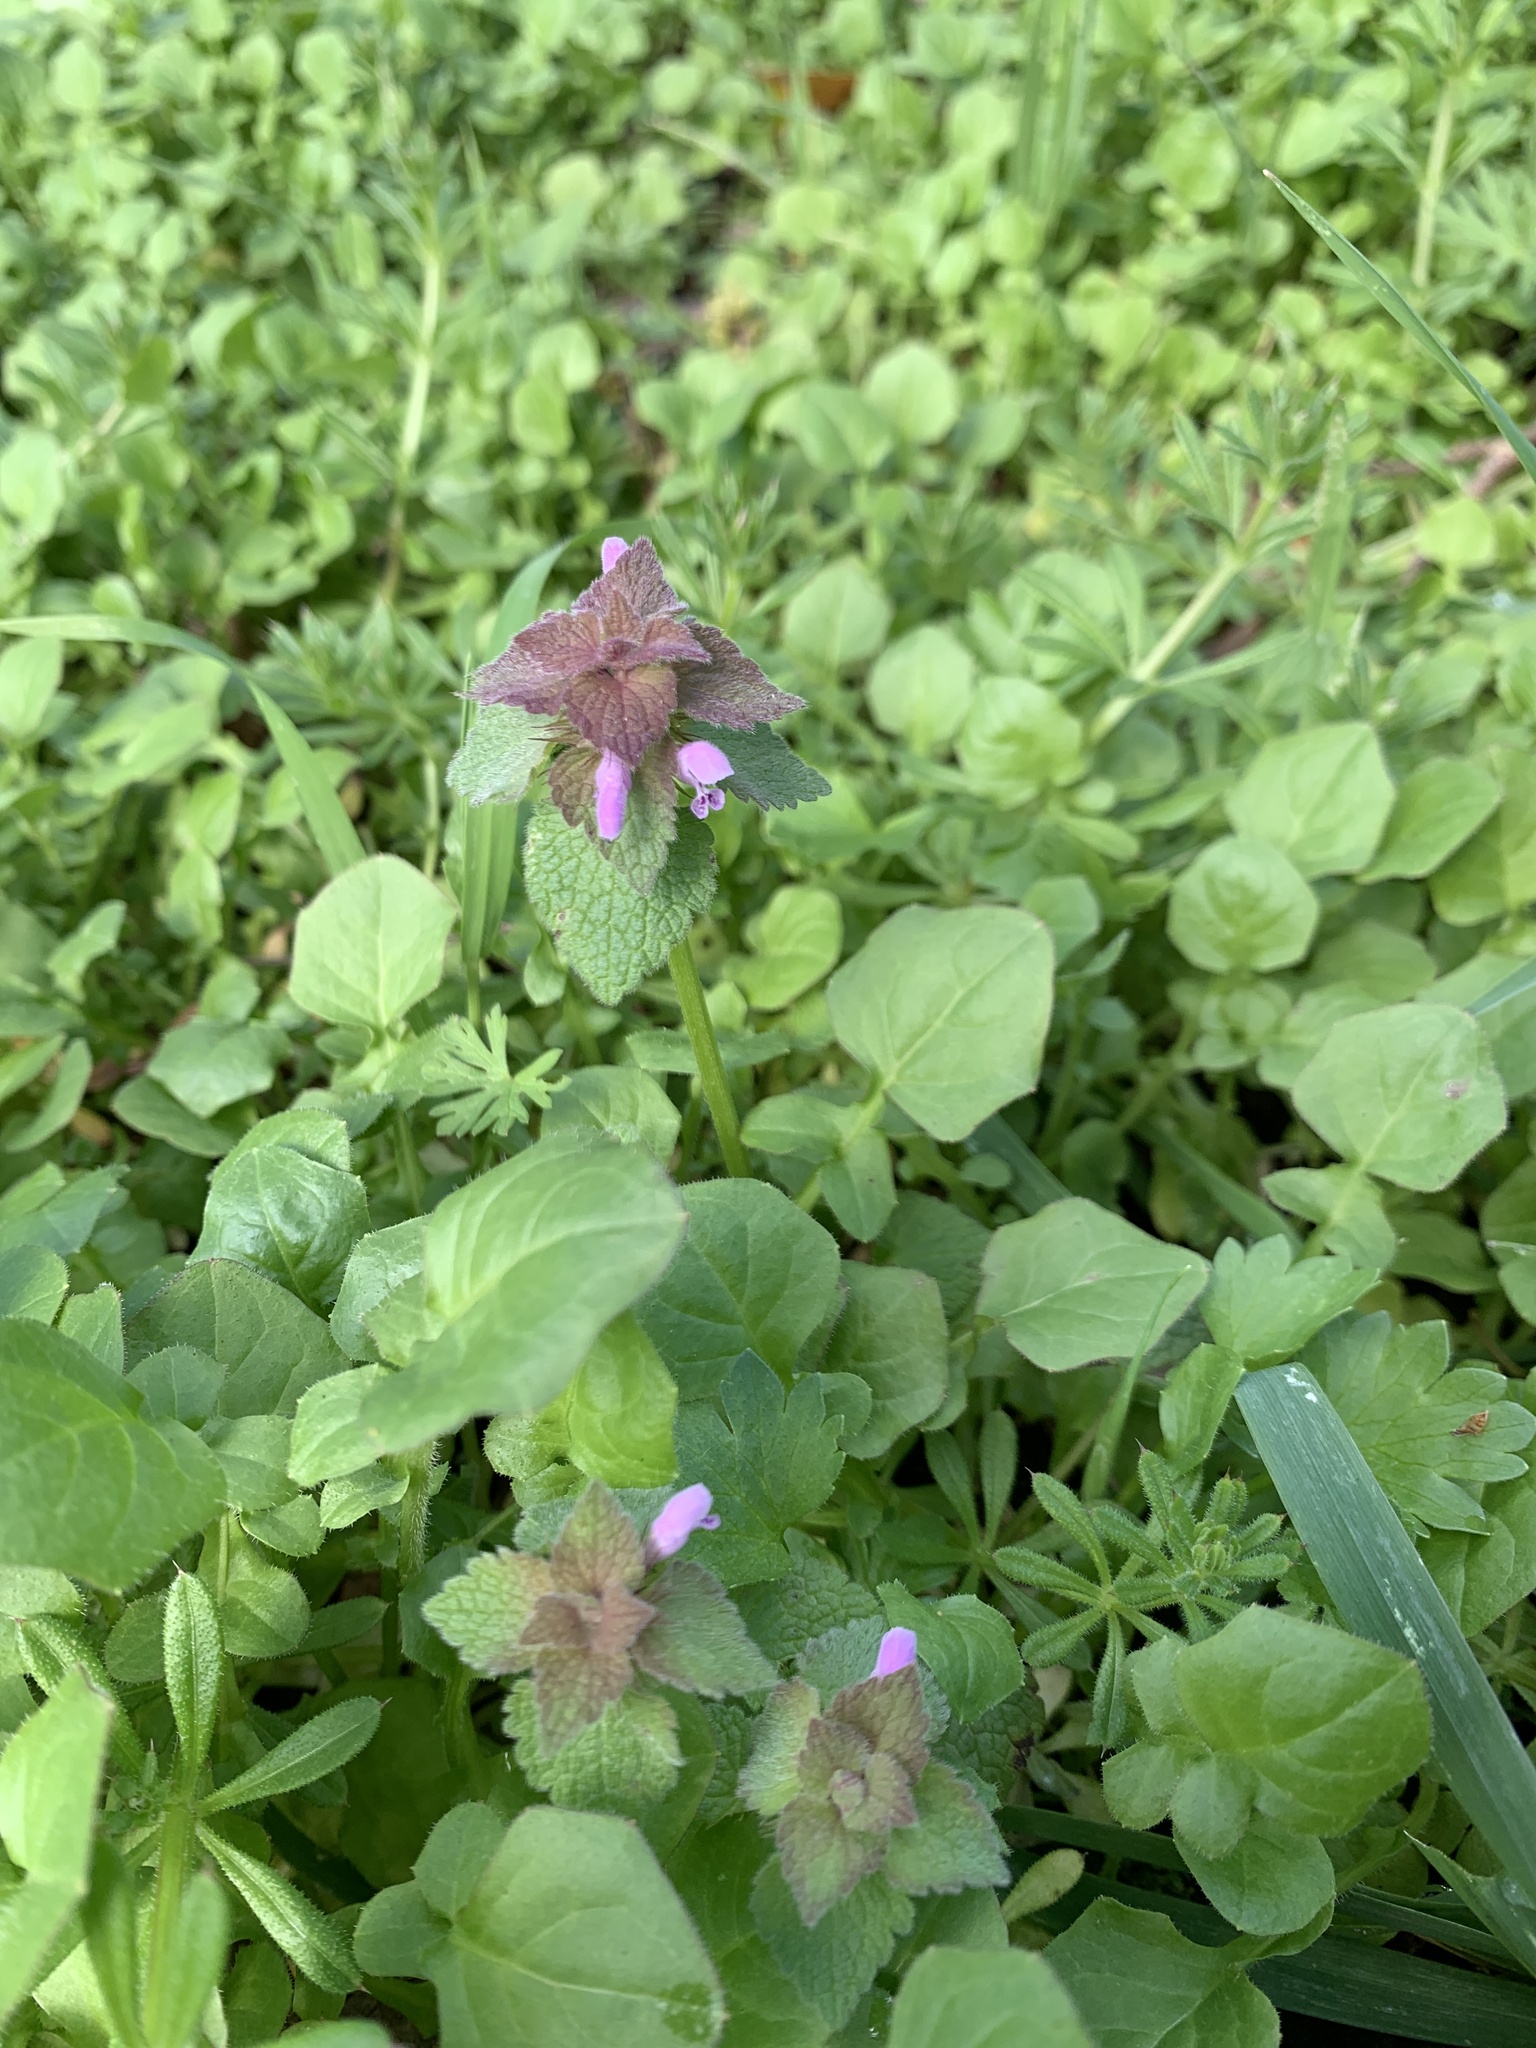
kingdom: Plantae
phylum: Tracheophyta
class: Magnoliopsida
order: Lamiales
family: Lamiaceae
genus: Lamium
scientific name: Lamium purpureum
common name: Red dead-nettle
